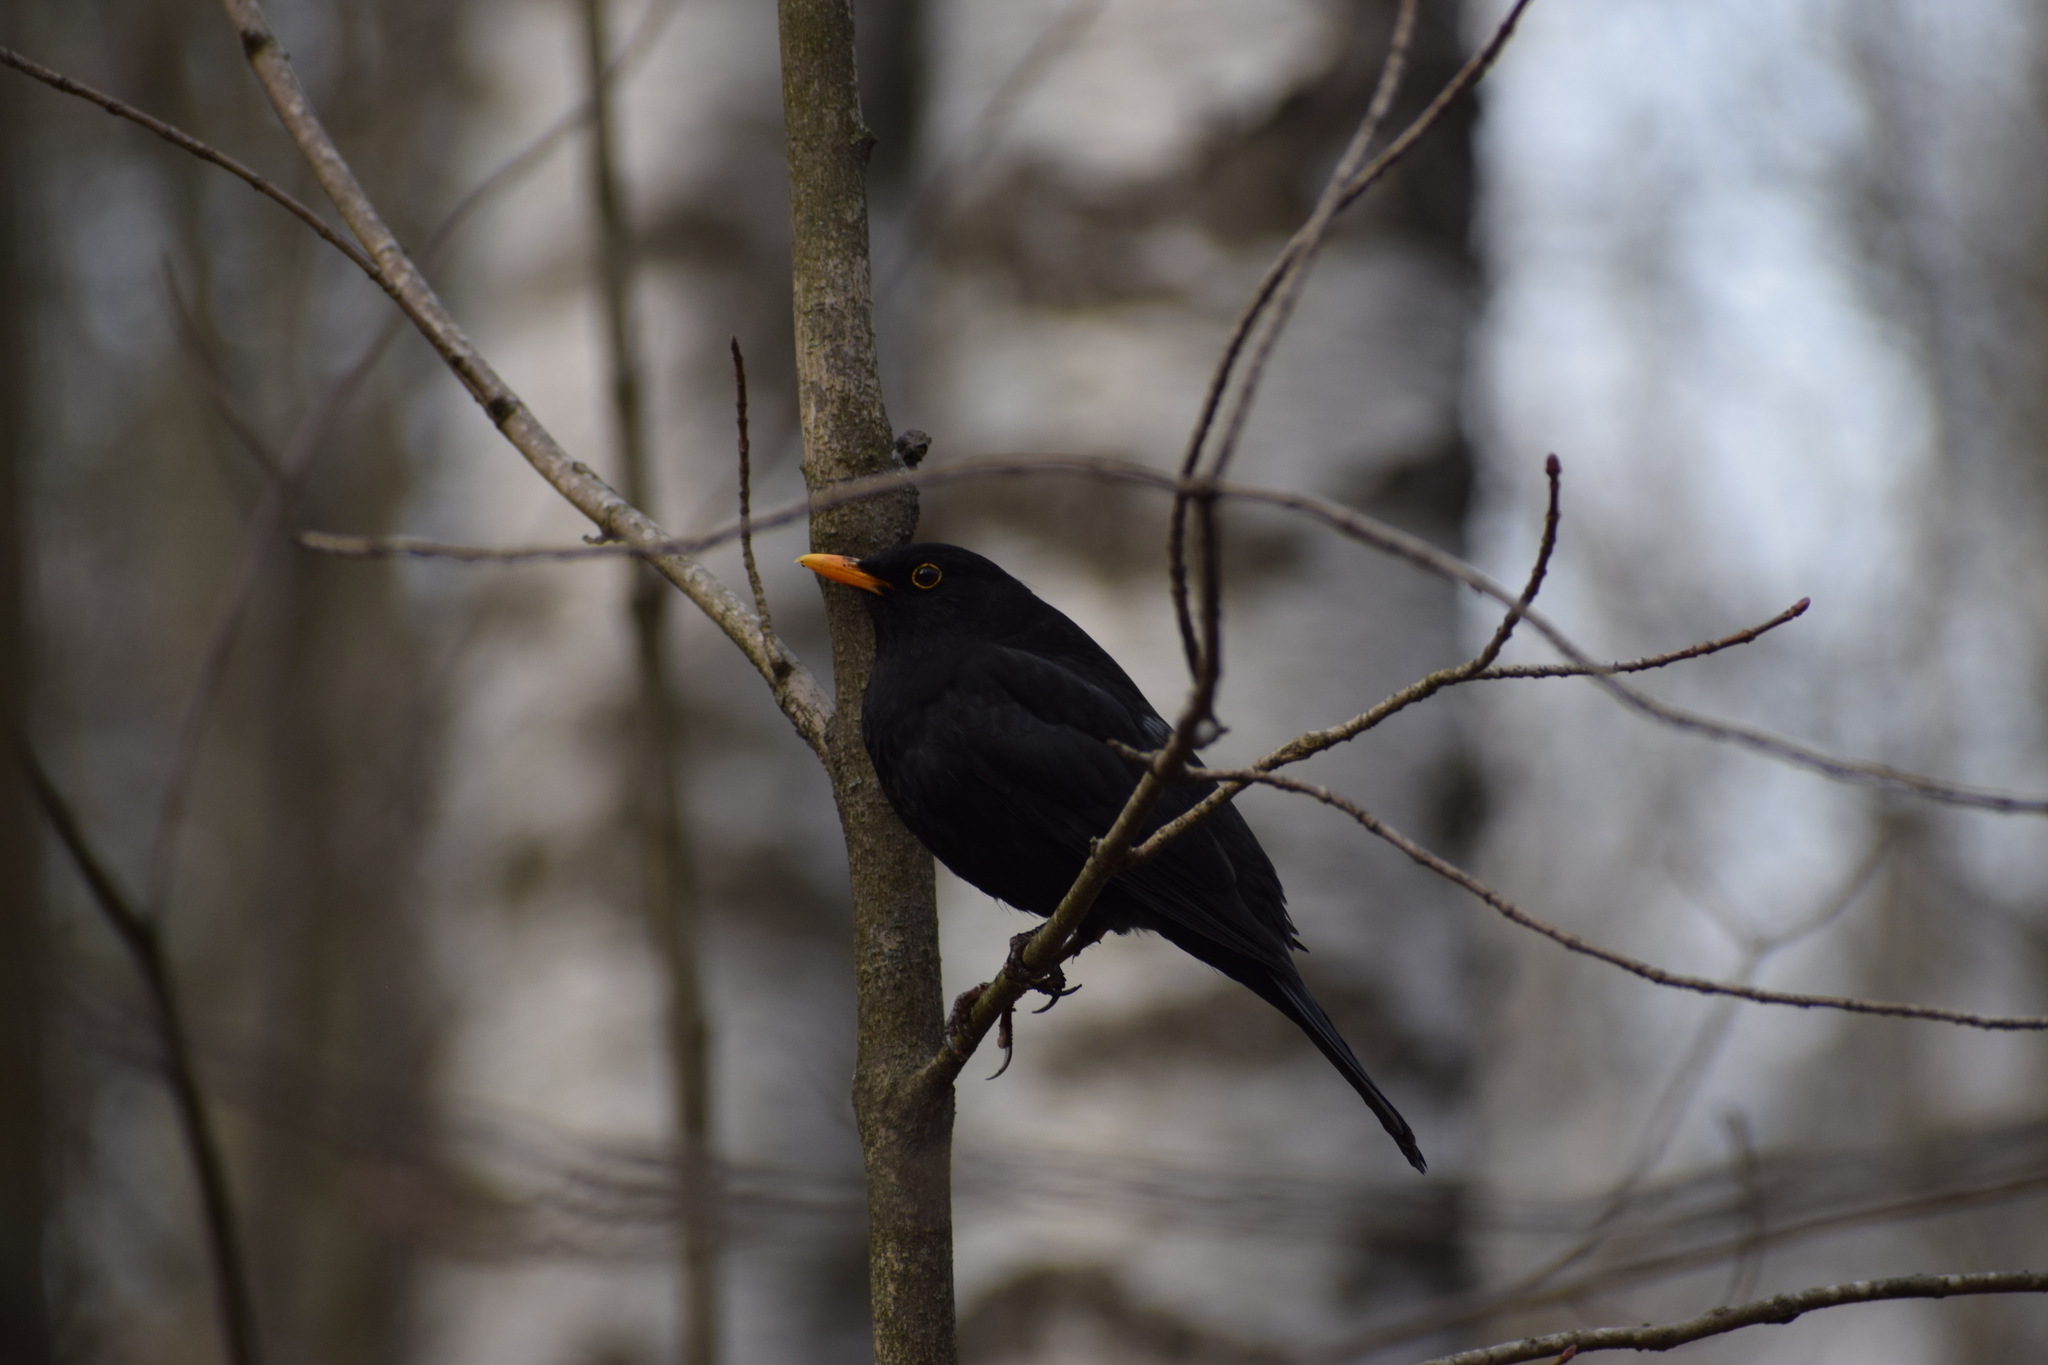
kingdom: Animalia
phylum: Chordata
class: Aves
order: Passeriformes
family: Turdidae
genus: Turdus
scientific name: Turdus merula
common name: Common blackbird
